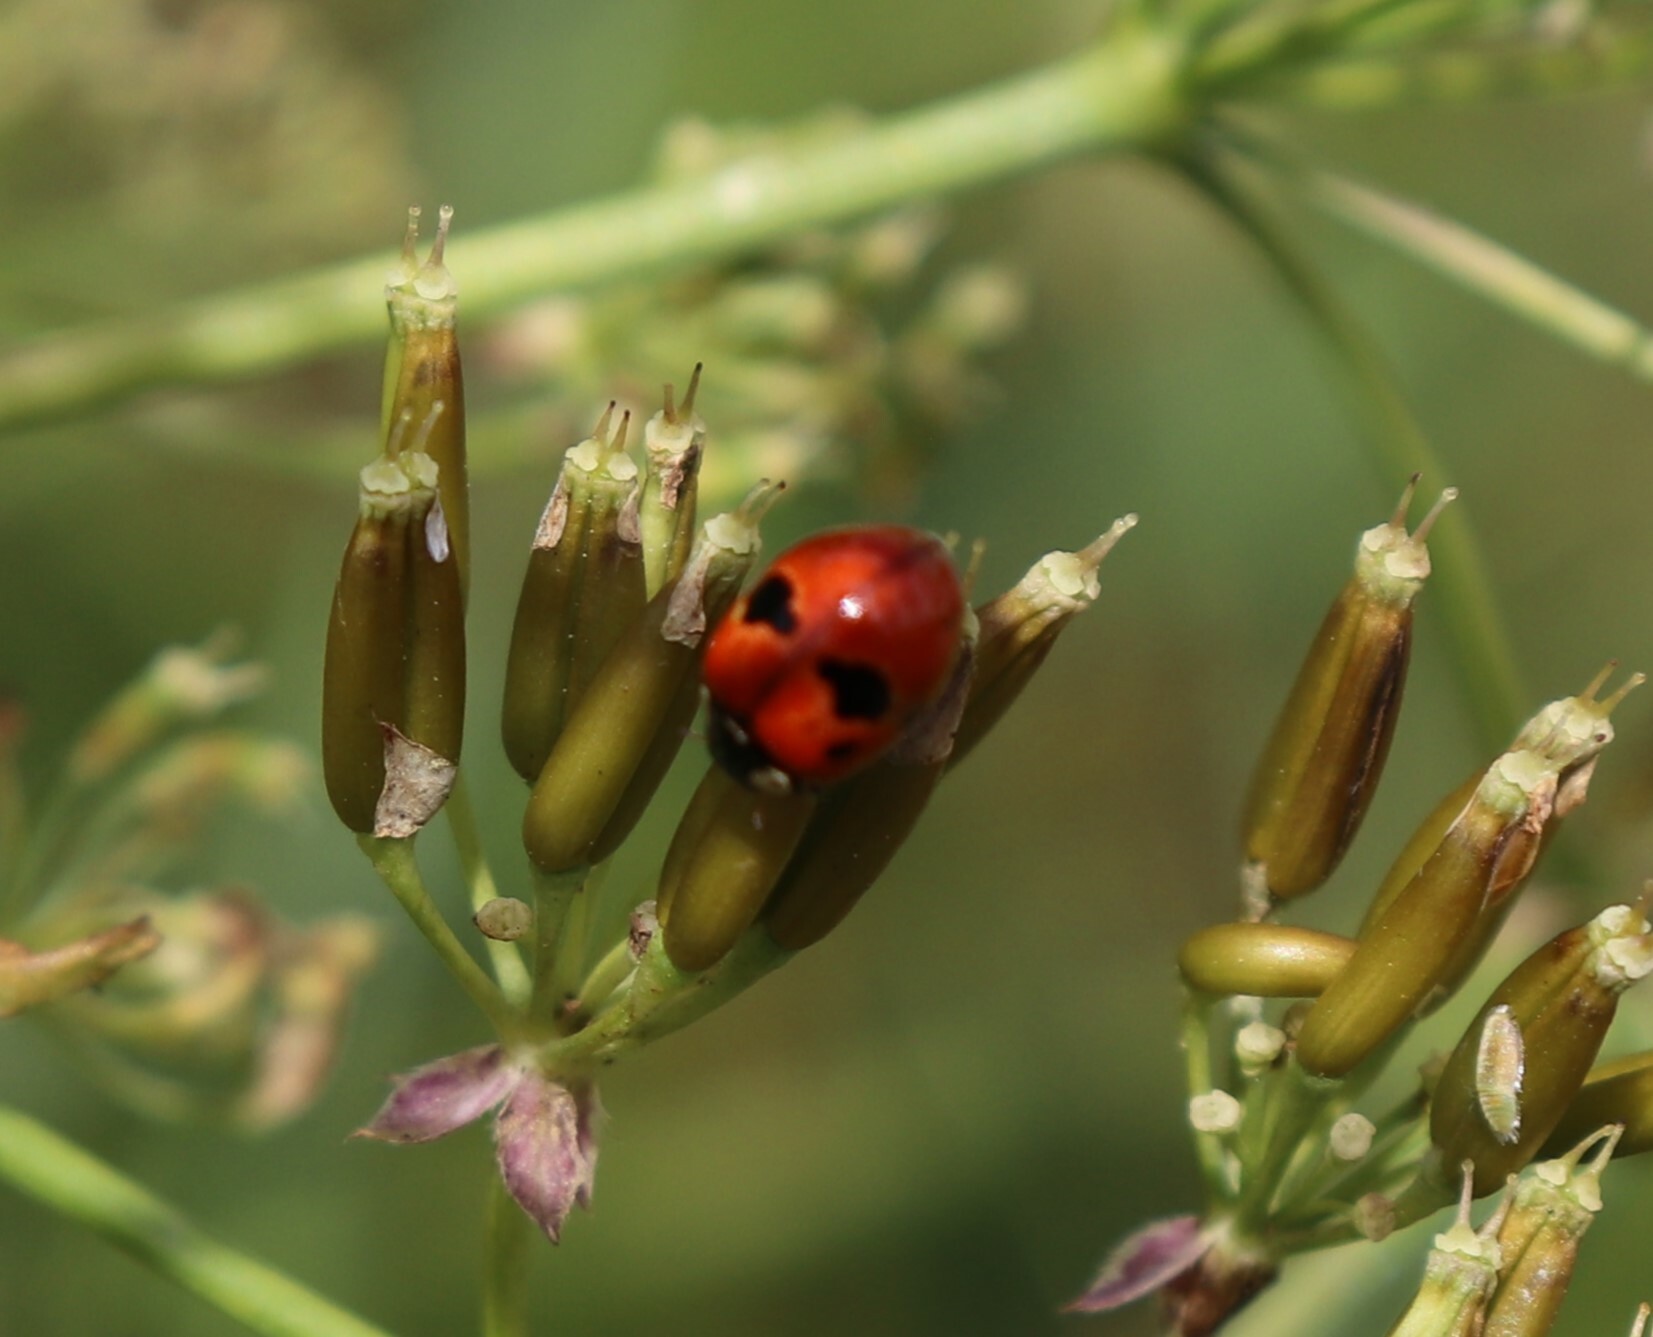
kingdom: Animalia
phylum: Arthropoda
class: Insecta
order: Coleoptera
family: Coccinellidae
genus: Adalia
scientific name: Adalia bipunctata
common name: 2-spot ladybird
